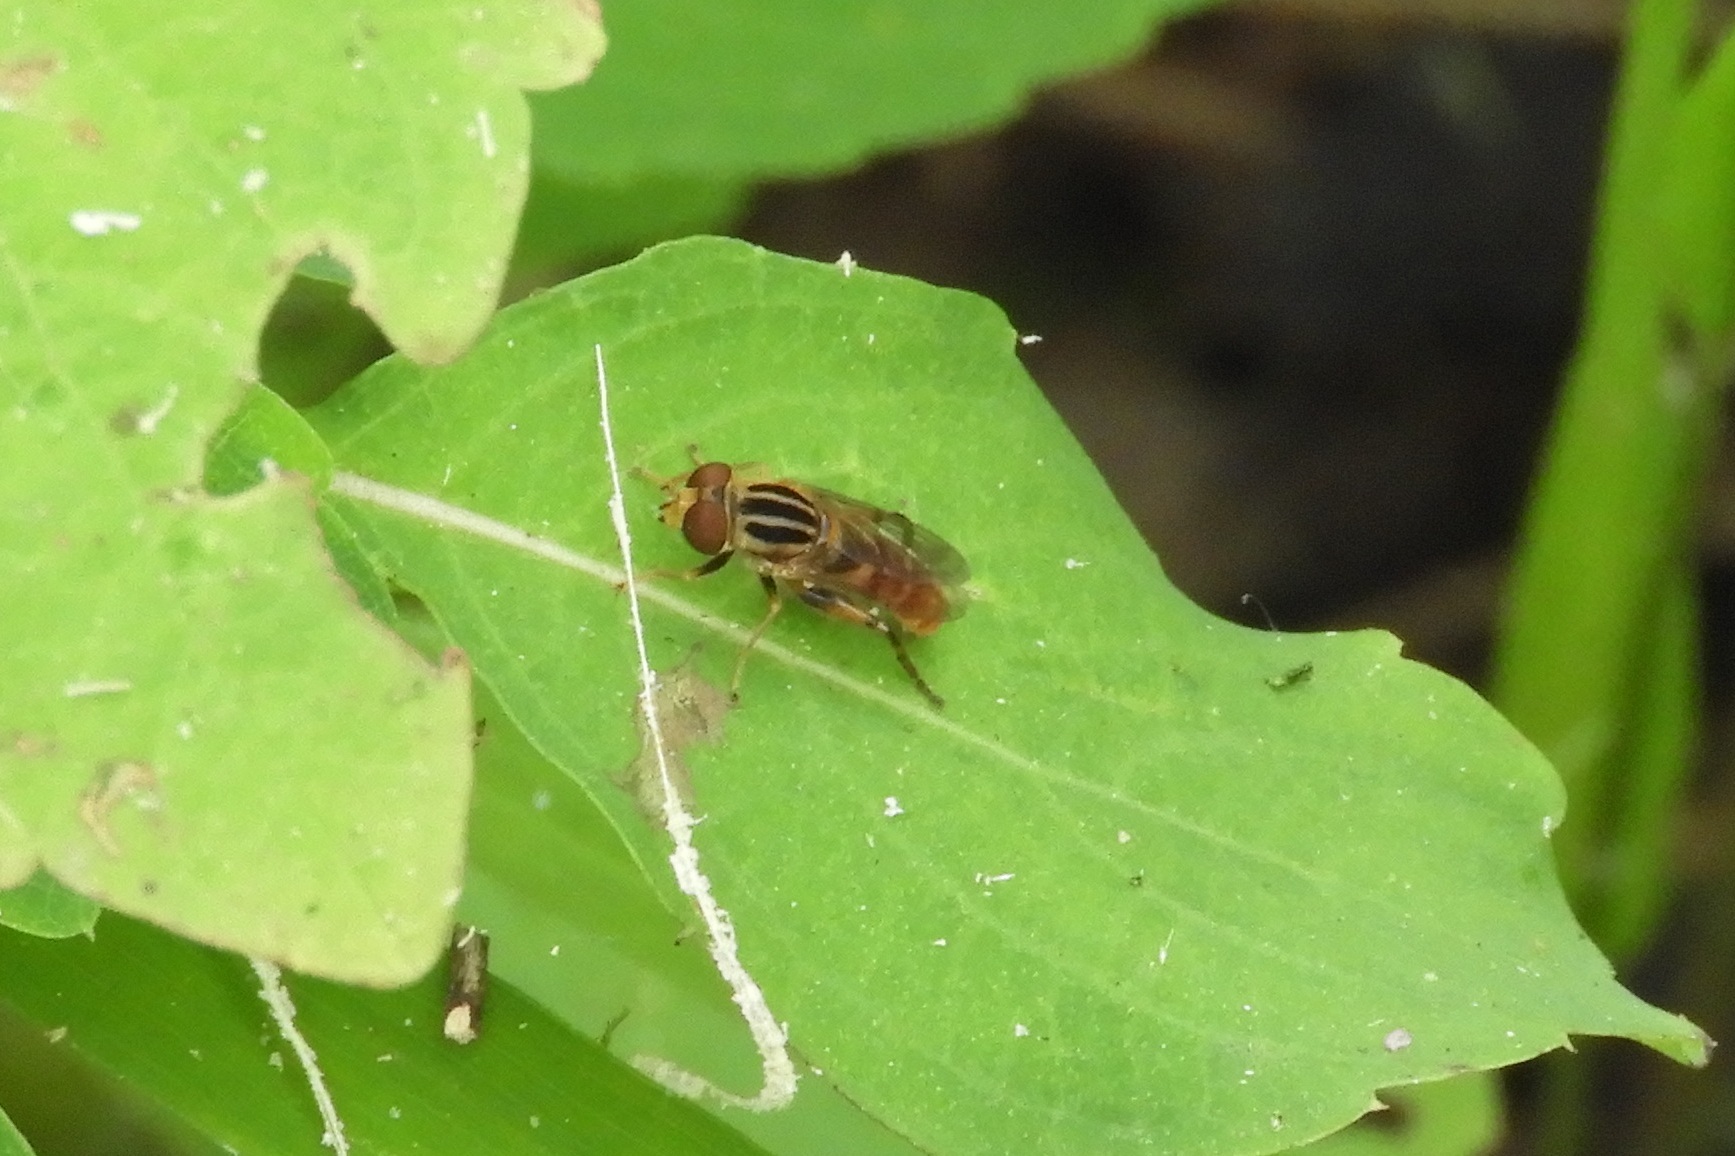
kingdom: Animalia
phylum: Arthropoda
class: Insecta
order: Diptera
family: Syrphidae
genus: Anasimyia
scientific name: Anasimyia
